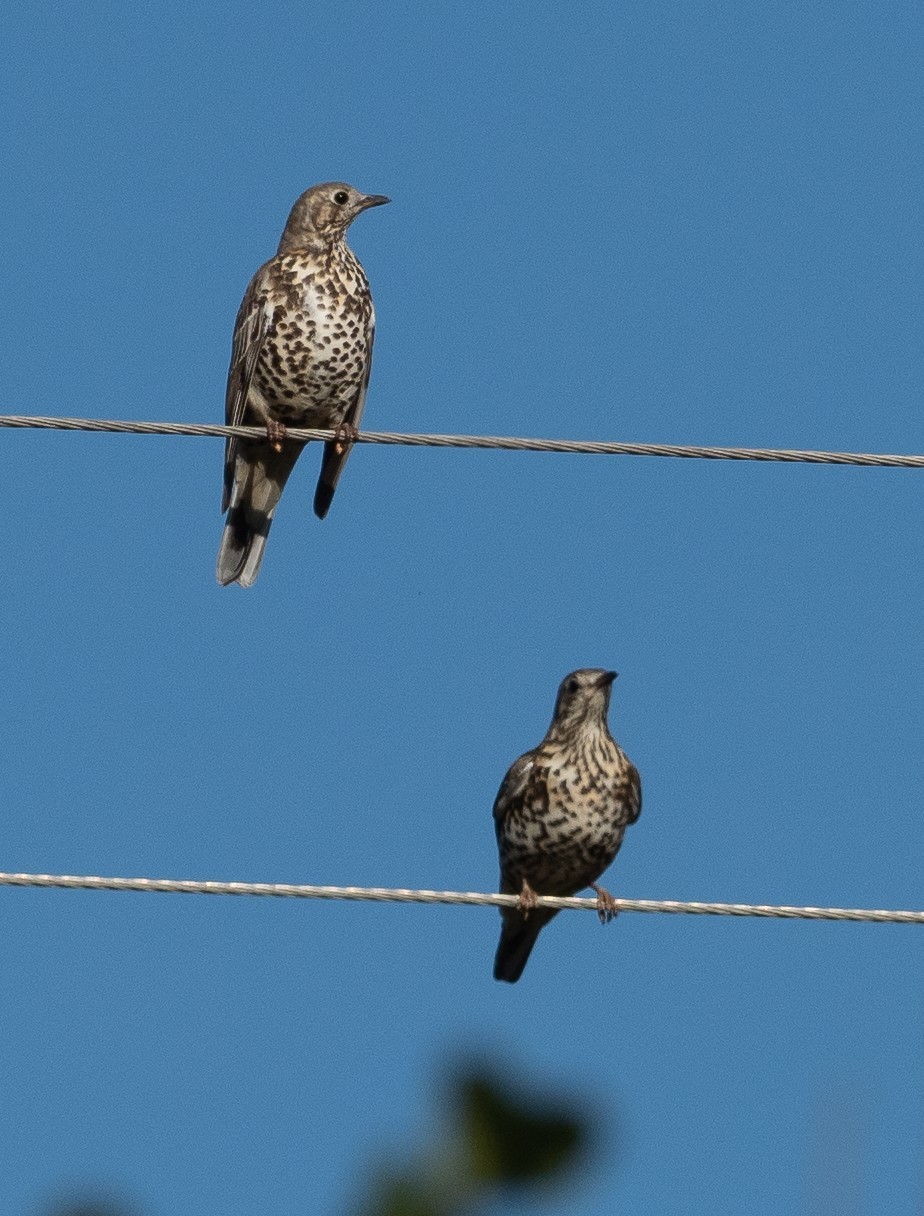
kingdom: Animalia
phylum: Chordata
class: Aves
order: Passeriformes
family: Turdidae
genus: Turdus
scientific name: Turdus viscivorus
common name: Mistle thrush
